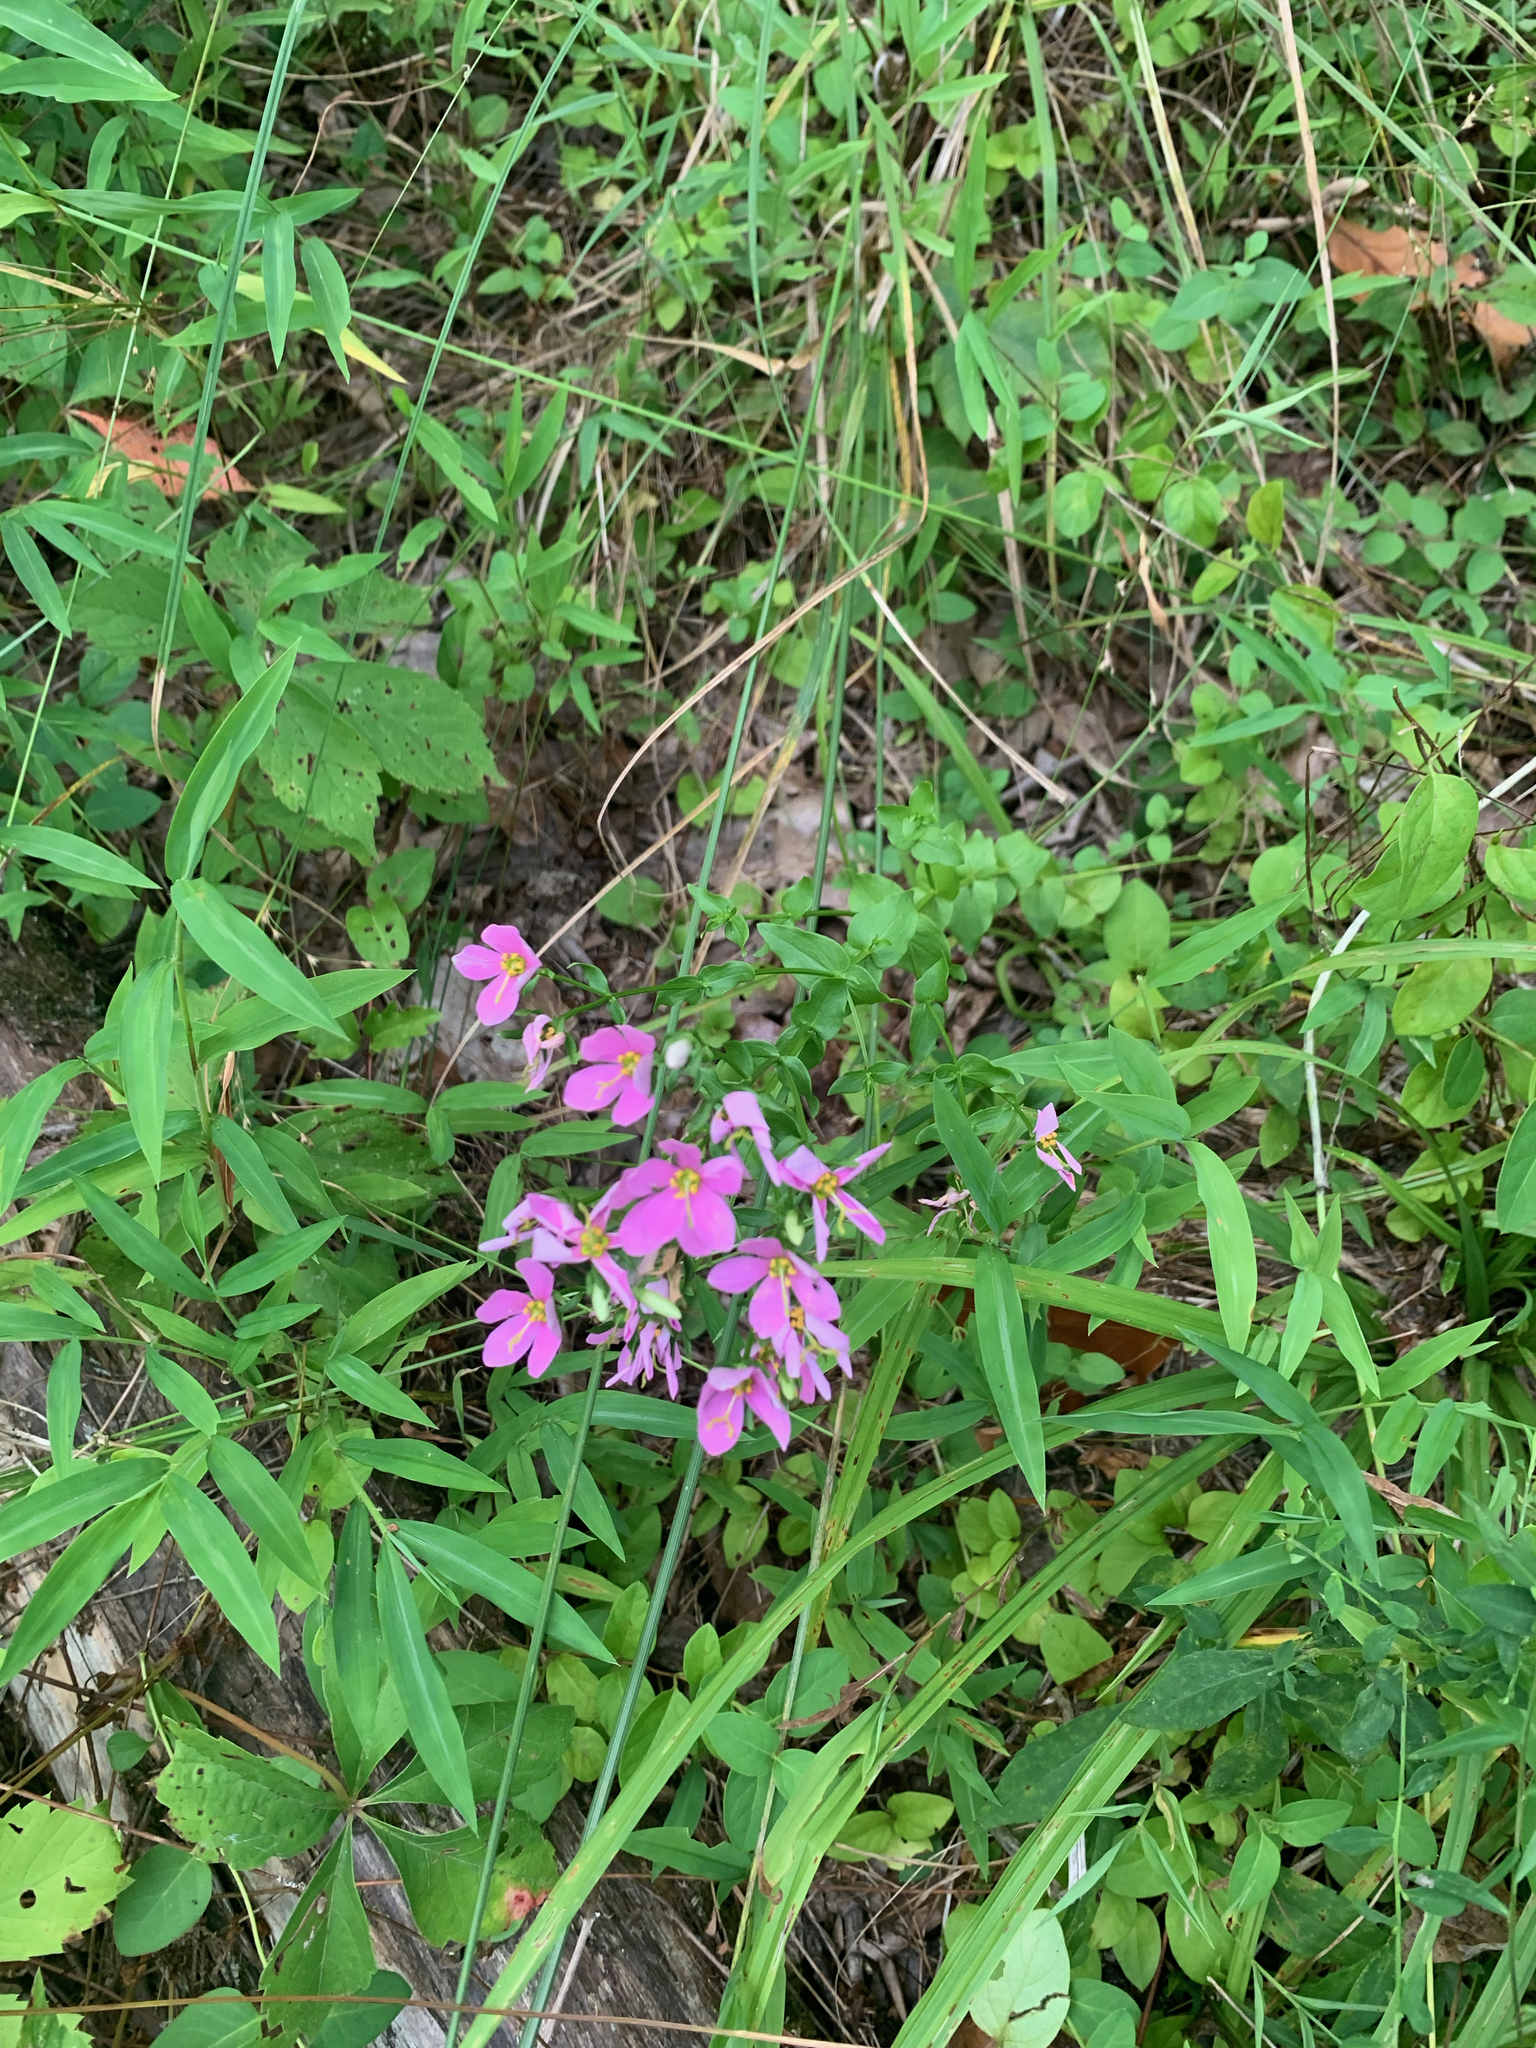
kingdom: Plantae
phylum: Tracheophyta
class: Magnoliopsida
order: Gentianales
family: Gentianaceae
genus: Sabatia
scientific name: Sabatia angularis
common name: Rose-pink
